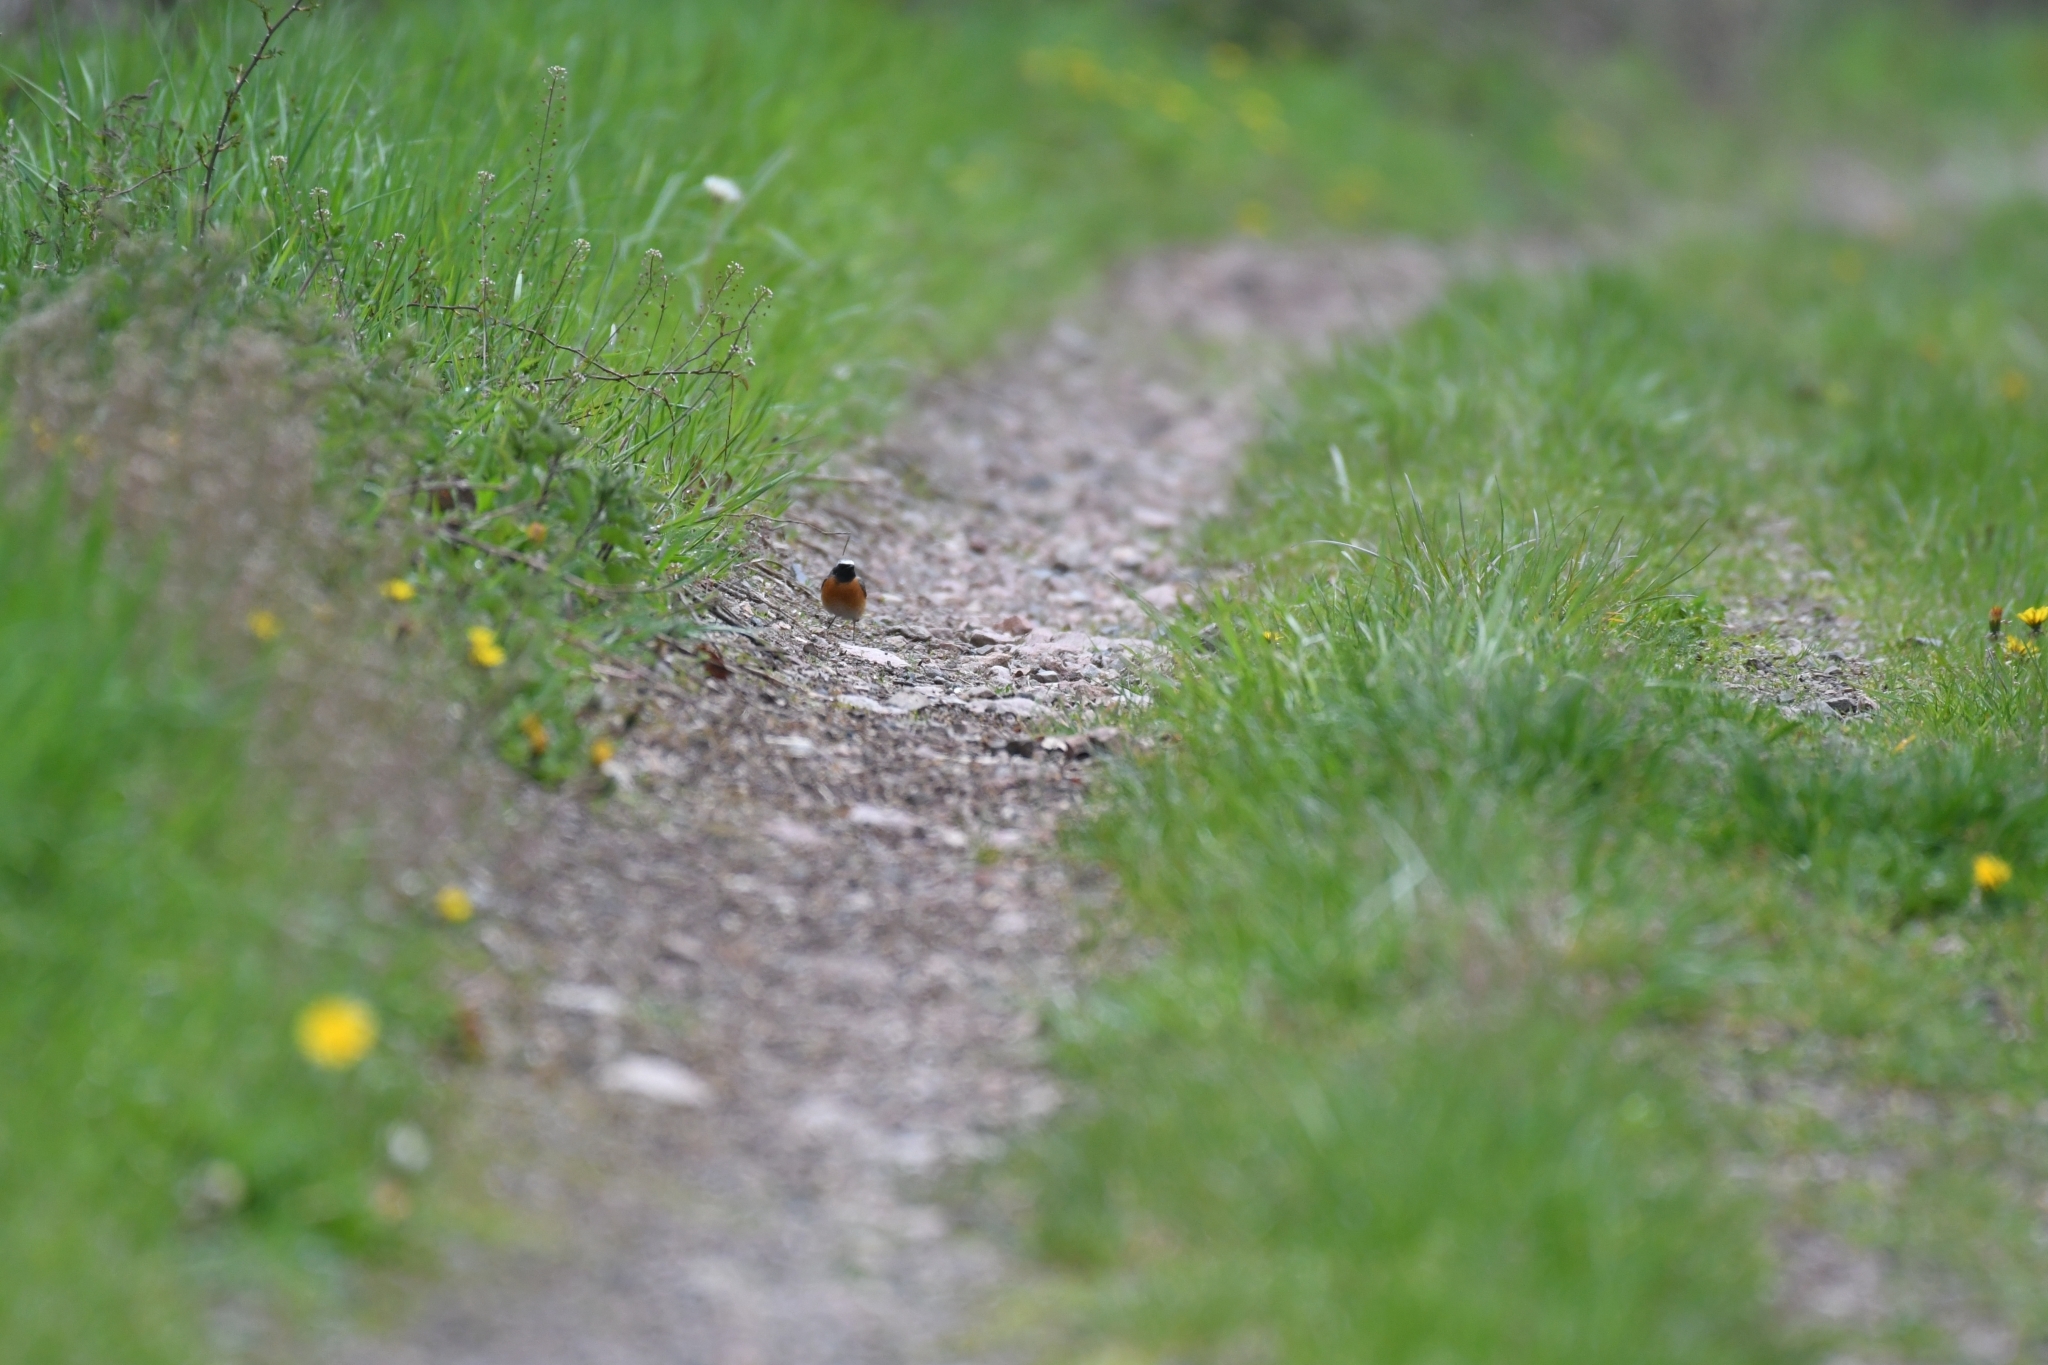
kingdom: Animalia
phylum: Chordata
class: Aves
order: Passeriformes
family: Muscicapidae
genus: Phoenicurus
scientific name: Phoenicurus phoenicurus
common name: Common redstart
